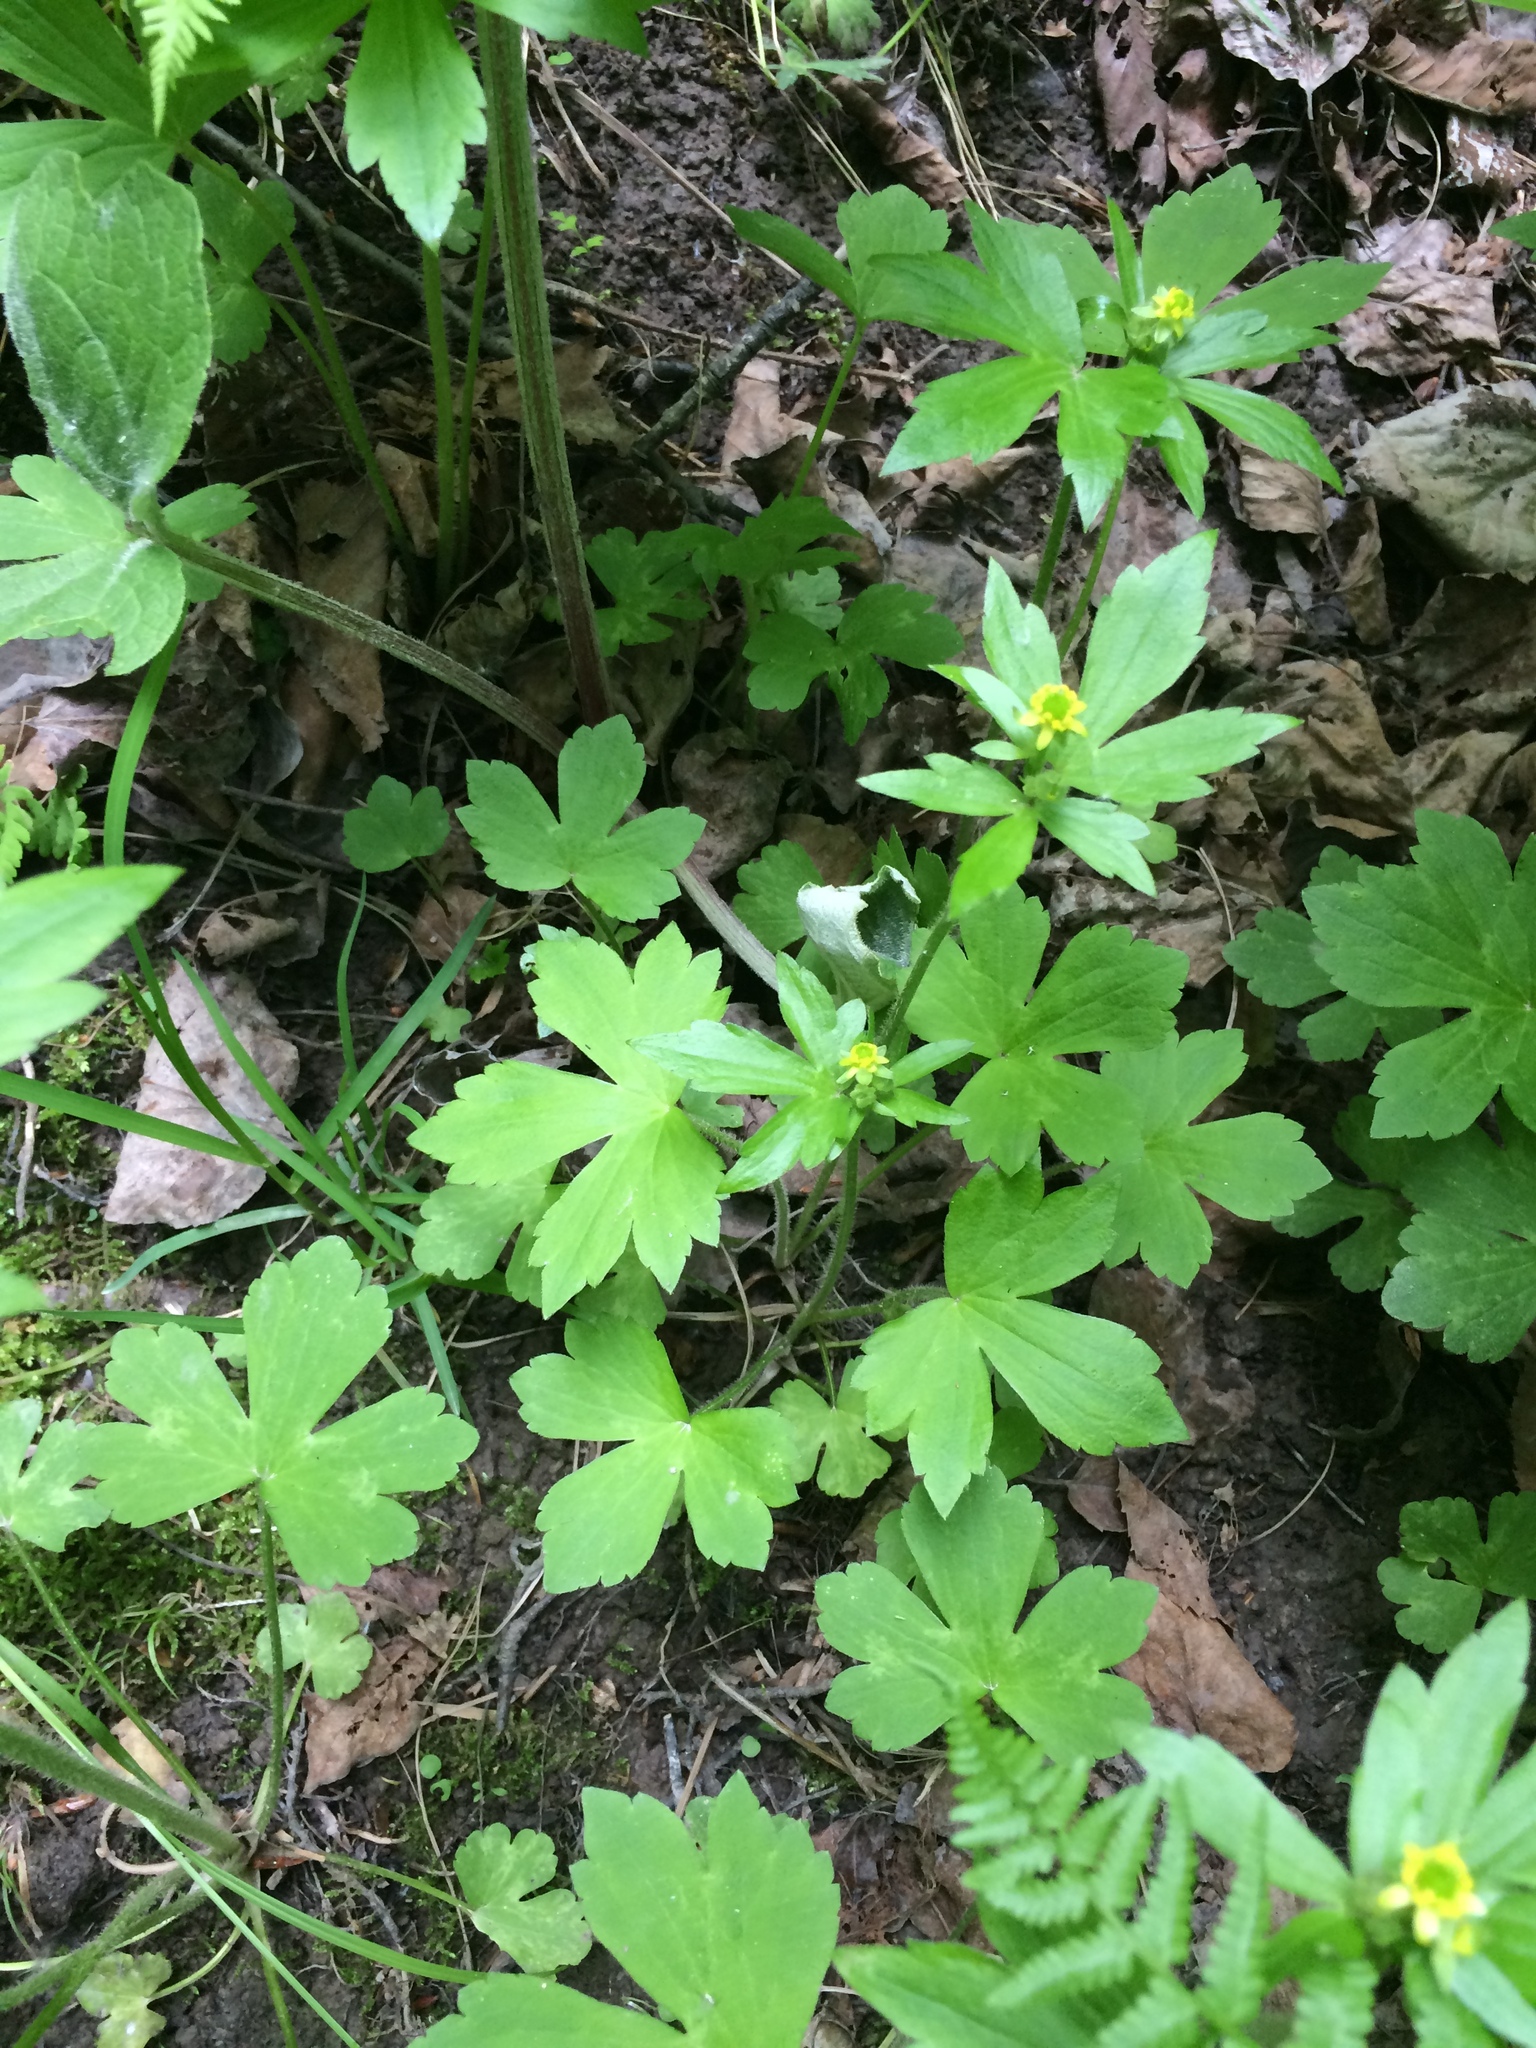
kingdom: Plantae
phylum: Tracheophyta
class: Magnoliopsida
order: Ranunculales
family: Ranunculaceae
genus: Ranunculus
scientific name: Ranunculus recurvatus
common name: Blisterwort
